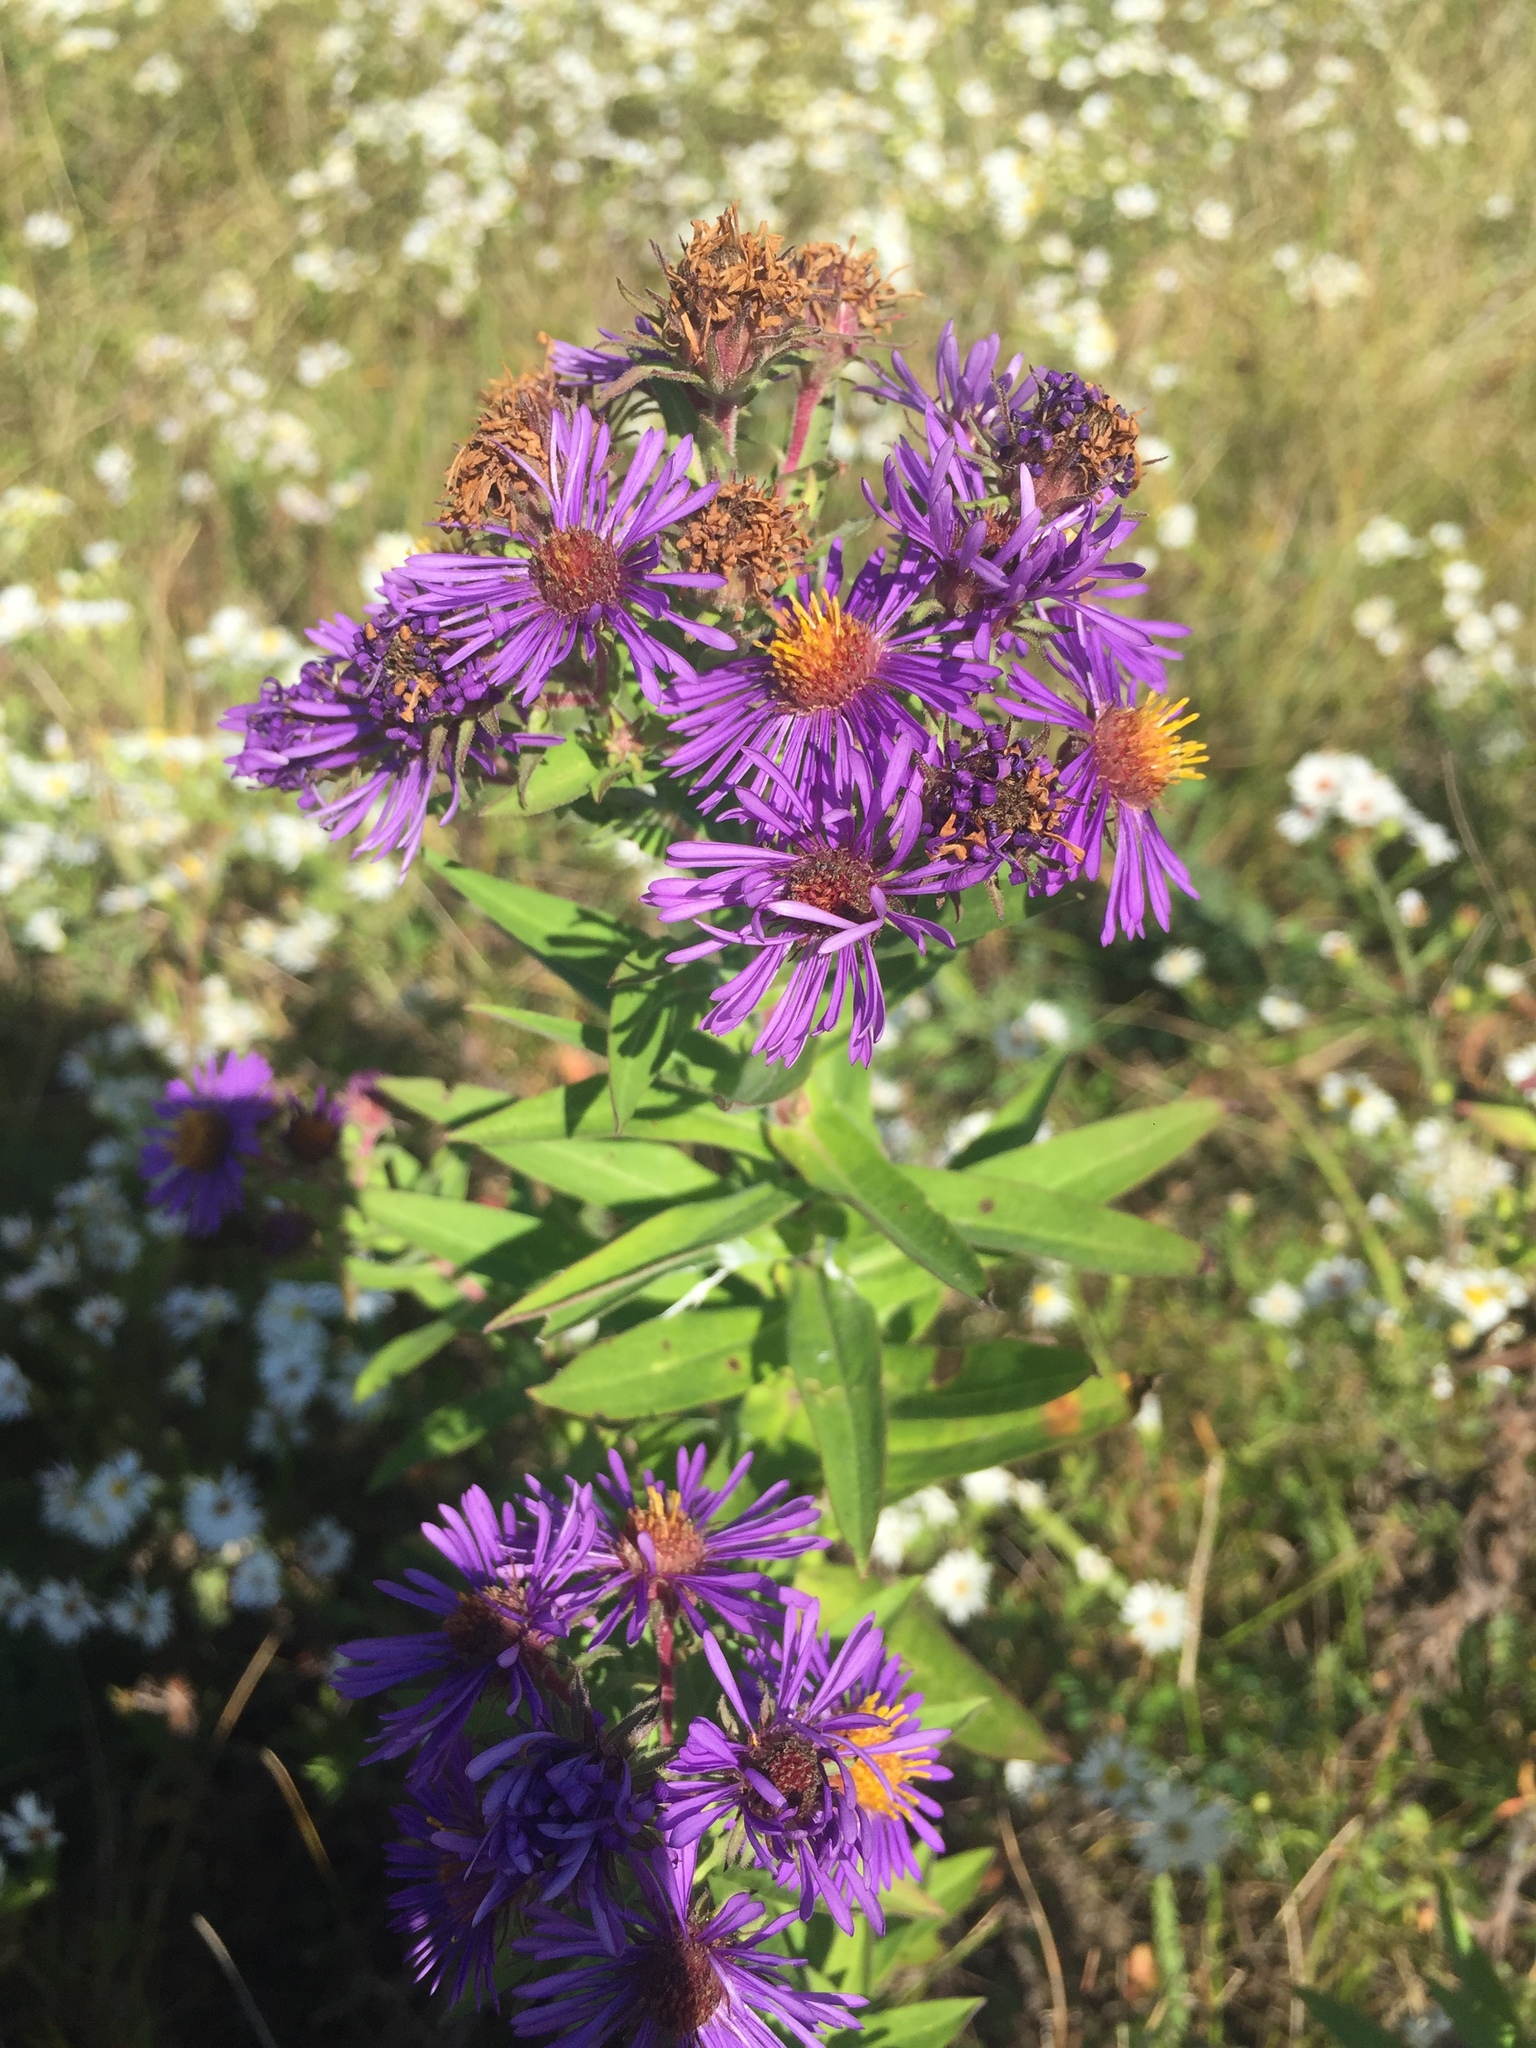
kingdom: Plantae
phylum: Tracheophyta
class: Magnoliopsida
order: Asterales
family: Asteraceae
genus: Symphyotrichum
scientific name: Symphyotrichum novae-angliae
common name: Michaelmas daisy
